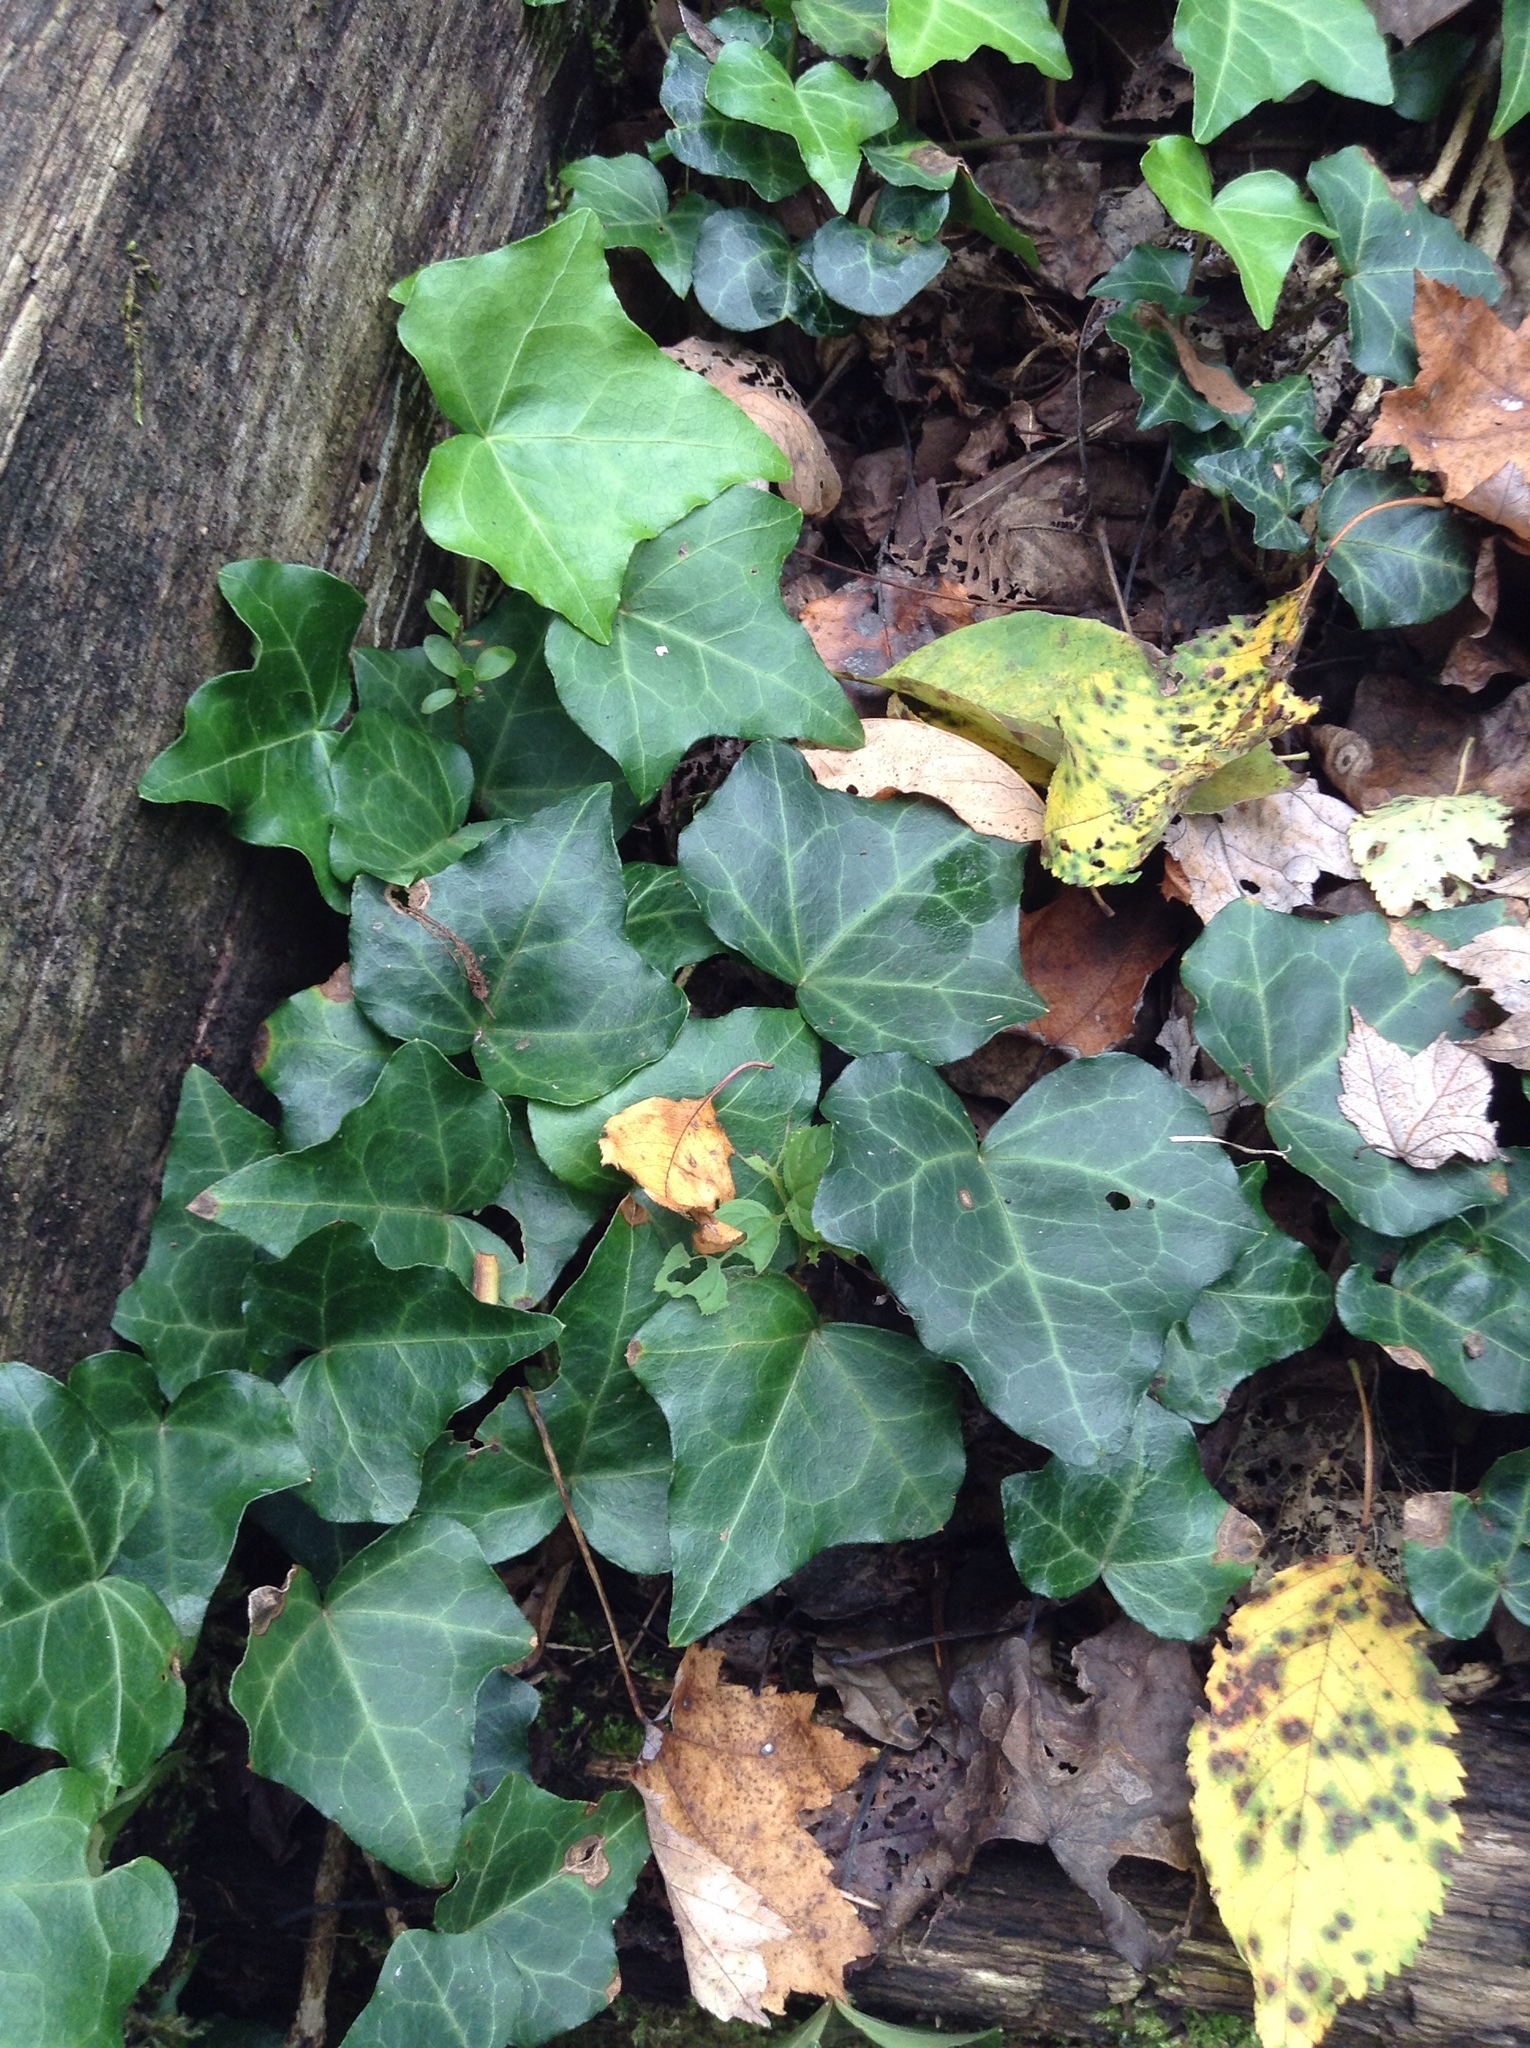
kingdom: Plantae
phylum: Tracheophyta
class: Magnoliopsida
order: Apiales
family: Araliaceae
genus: Hedera
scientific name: Hedera helix
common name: Ivy
